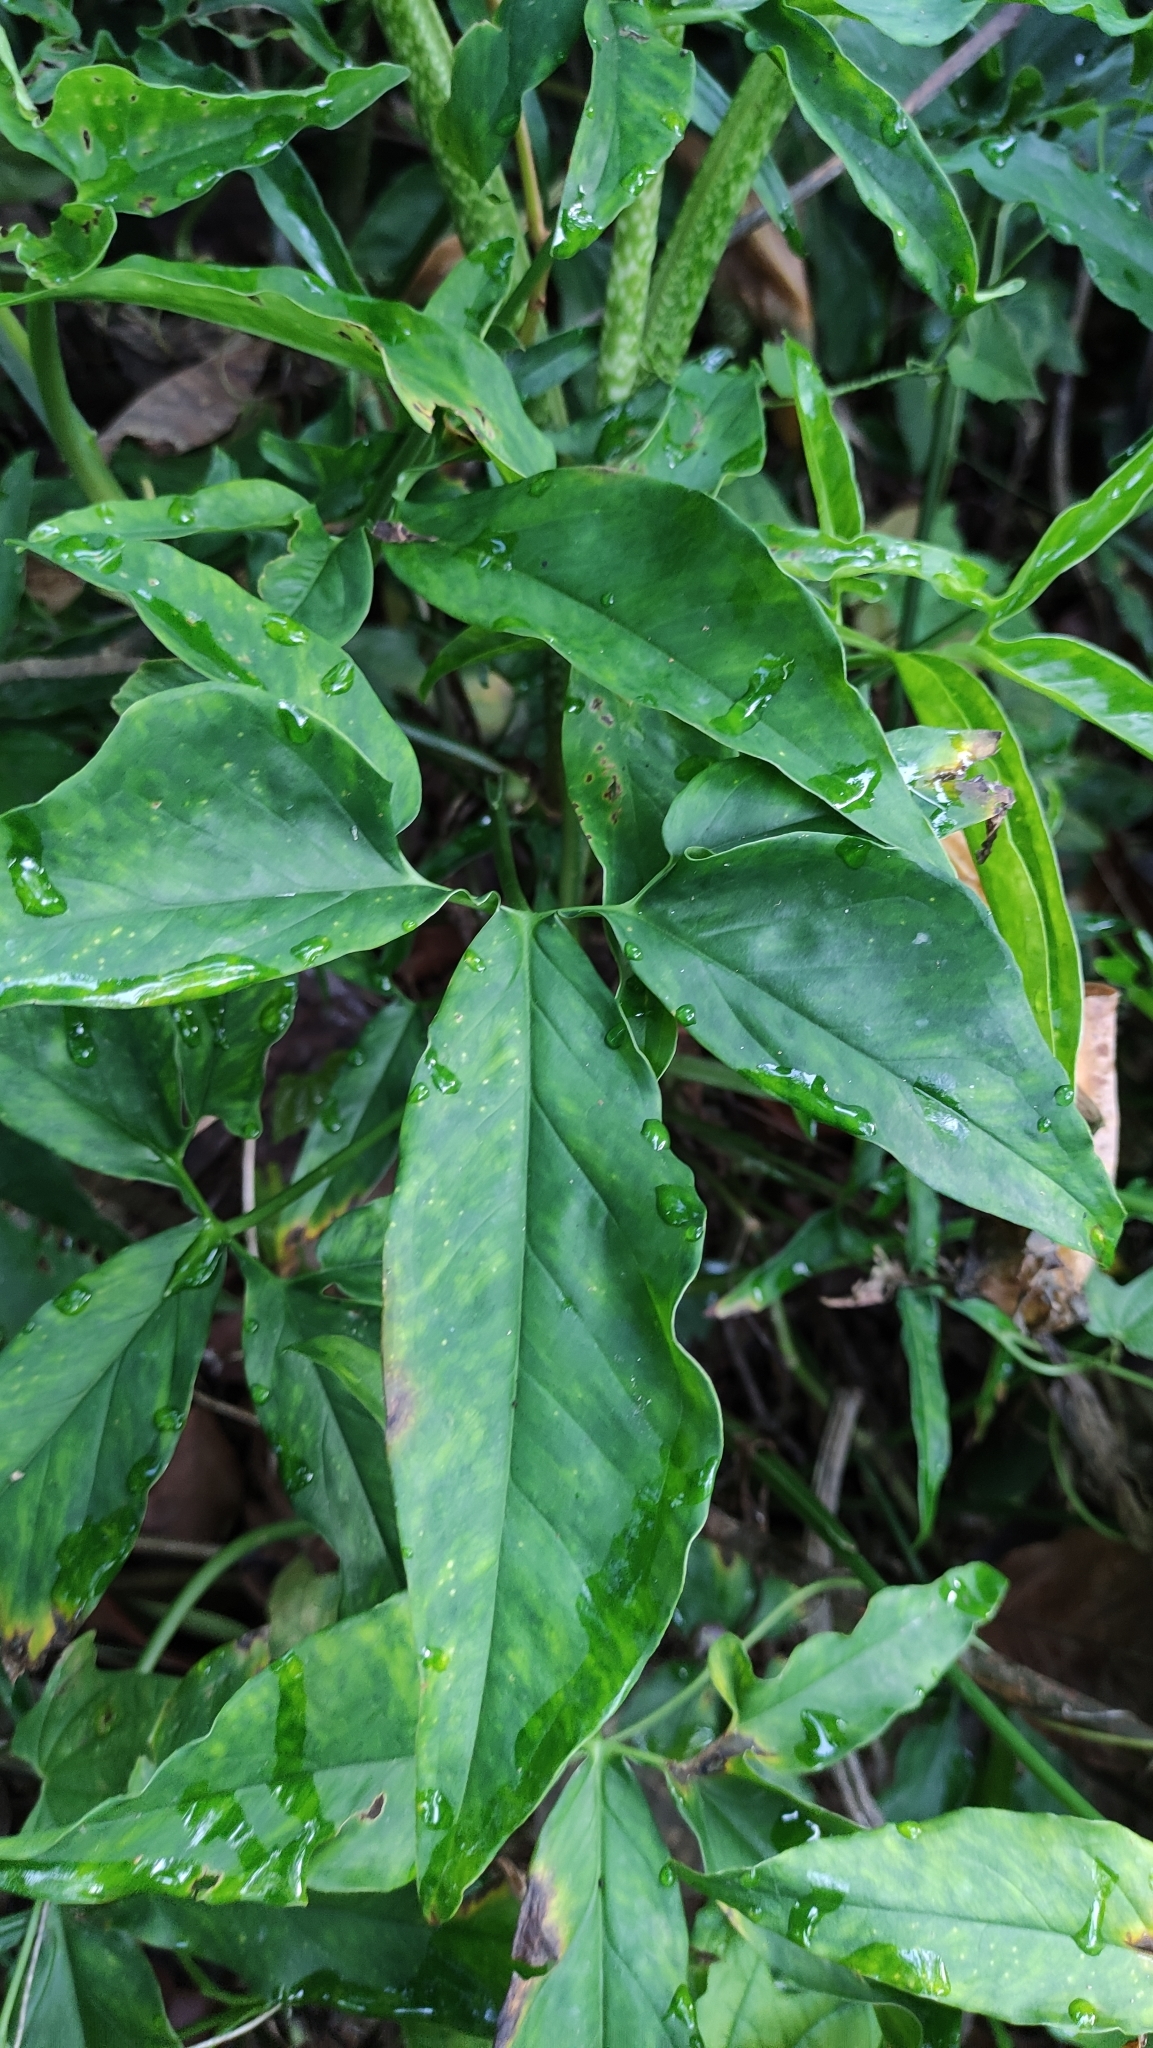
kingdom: Plantae
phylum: Tracheophyta
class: Liliopsida
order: Alismatales
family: Araceae
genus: Syngonium
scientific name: Syngonium podophyllum
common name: American evergreen
